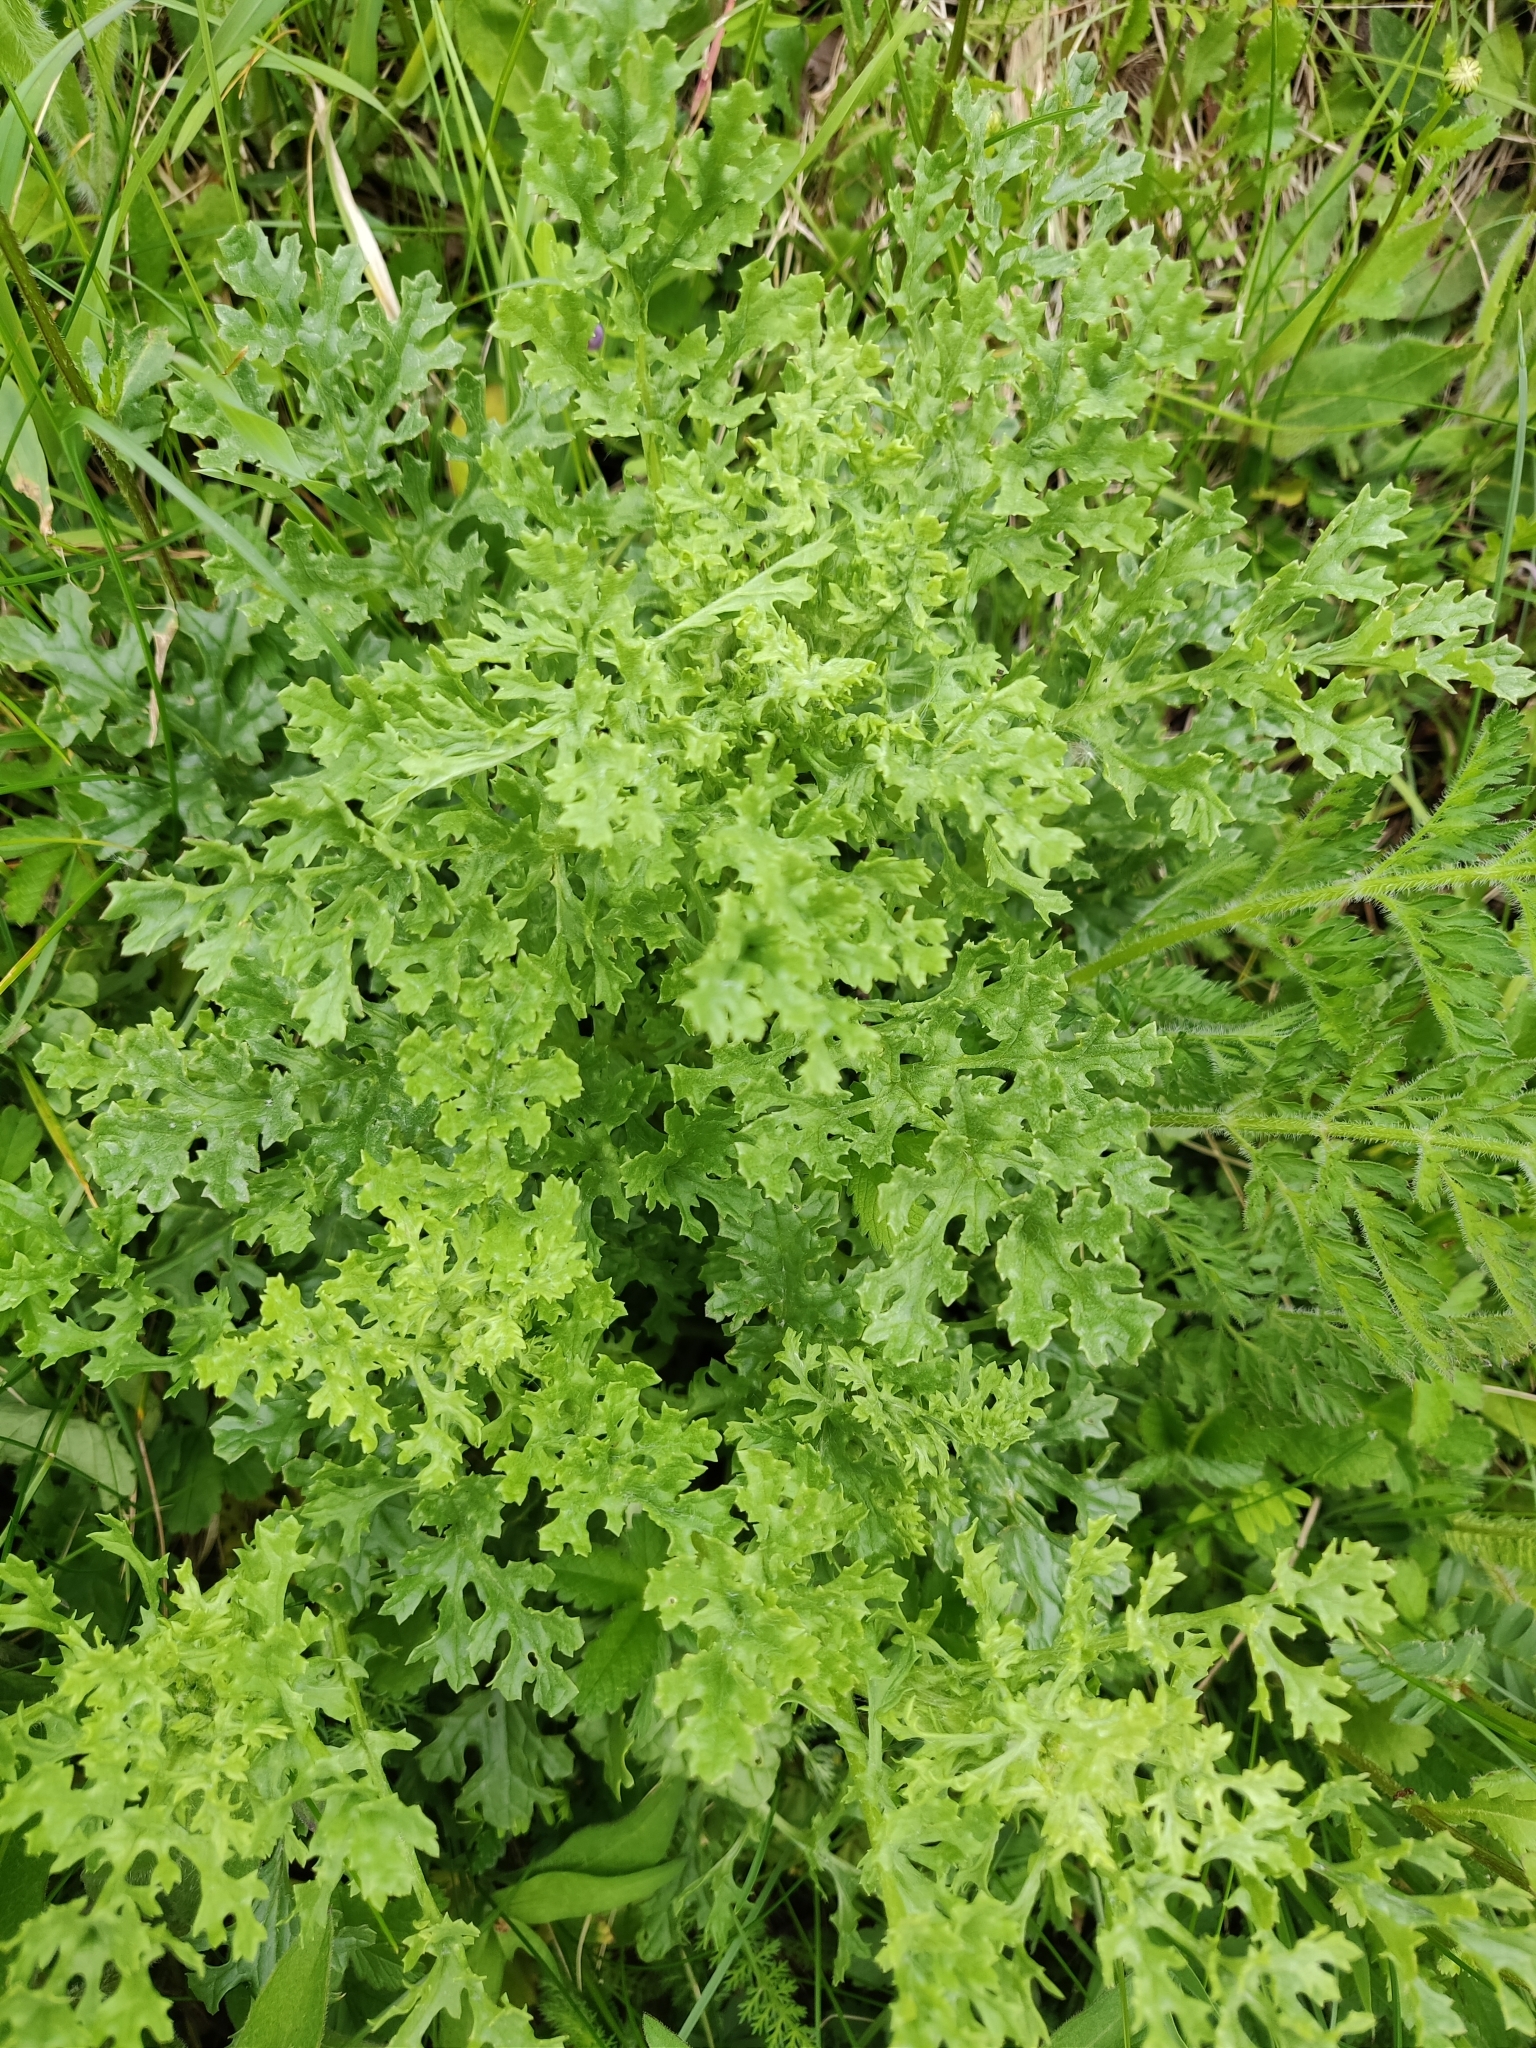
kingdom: Plantae
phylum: Tracheophyta
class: Magnoliopsida
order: Asterales
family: Asteraceae
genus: Jacobaea
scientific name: Jacobaea vulgaris
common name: Stinking willie
